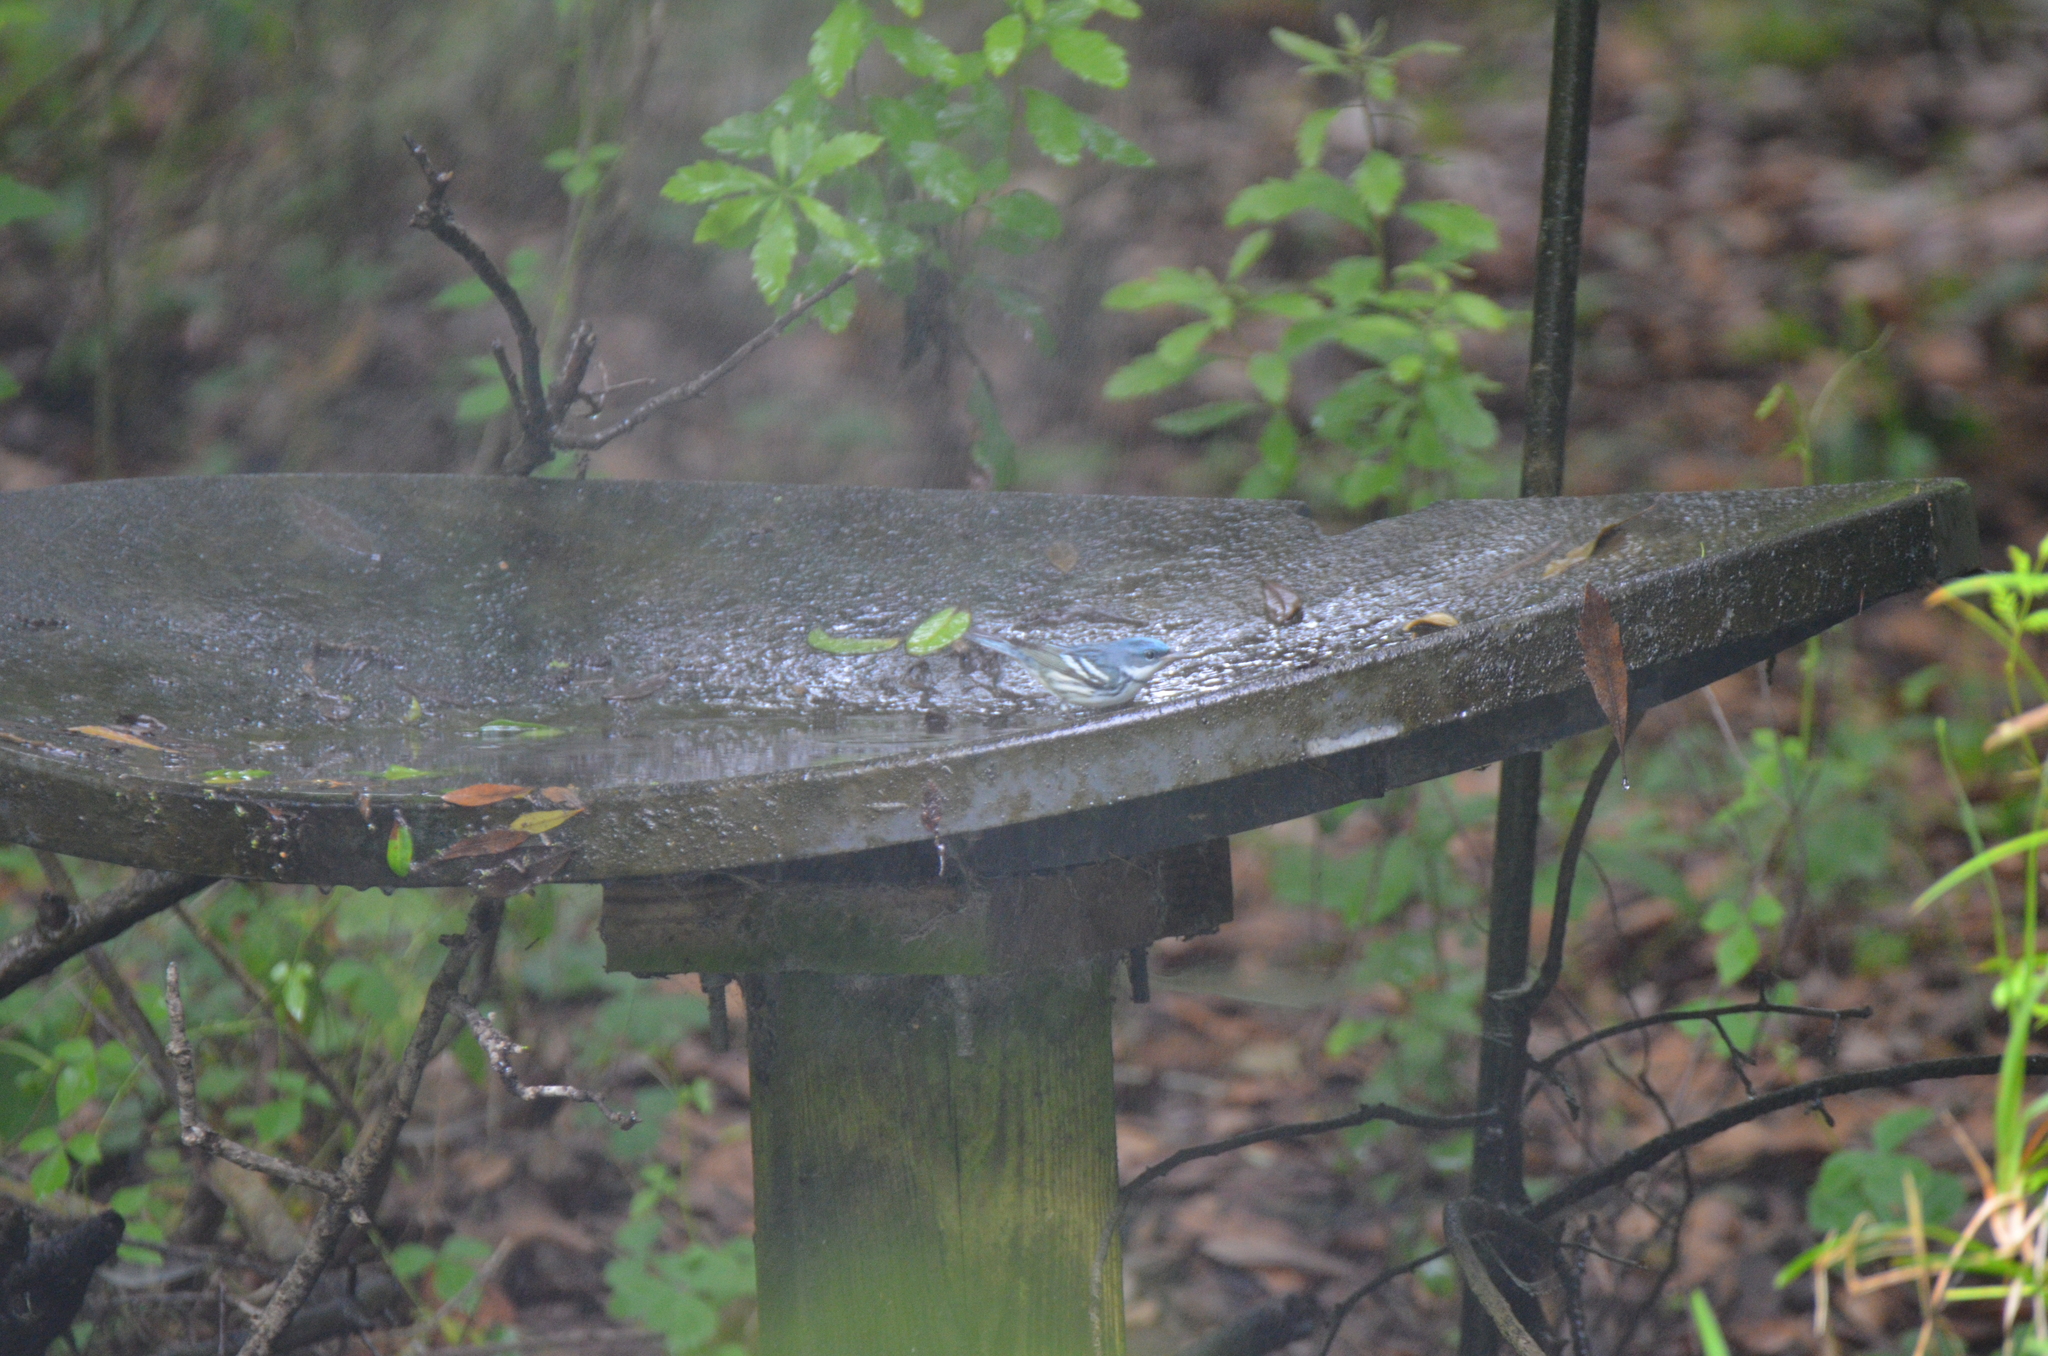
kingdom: Animalia
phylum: Chordata
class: Aves
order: Passeriformes
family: Parulidae
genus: Setophaga
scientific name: Setophaga cerulea
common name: Cerulean warbler
